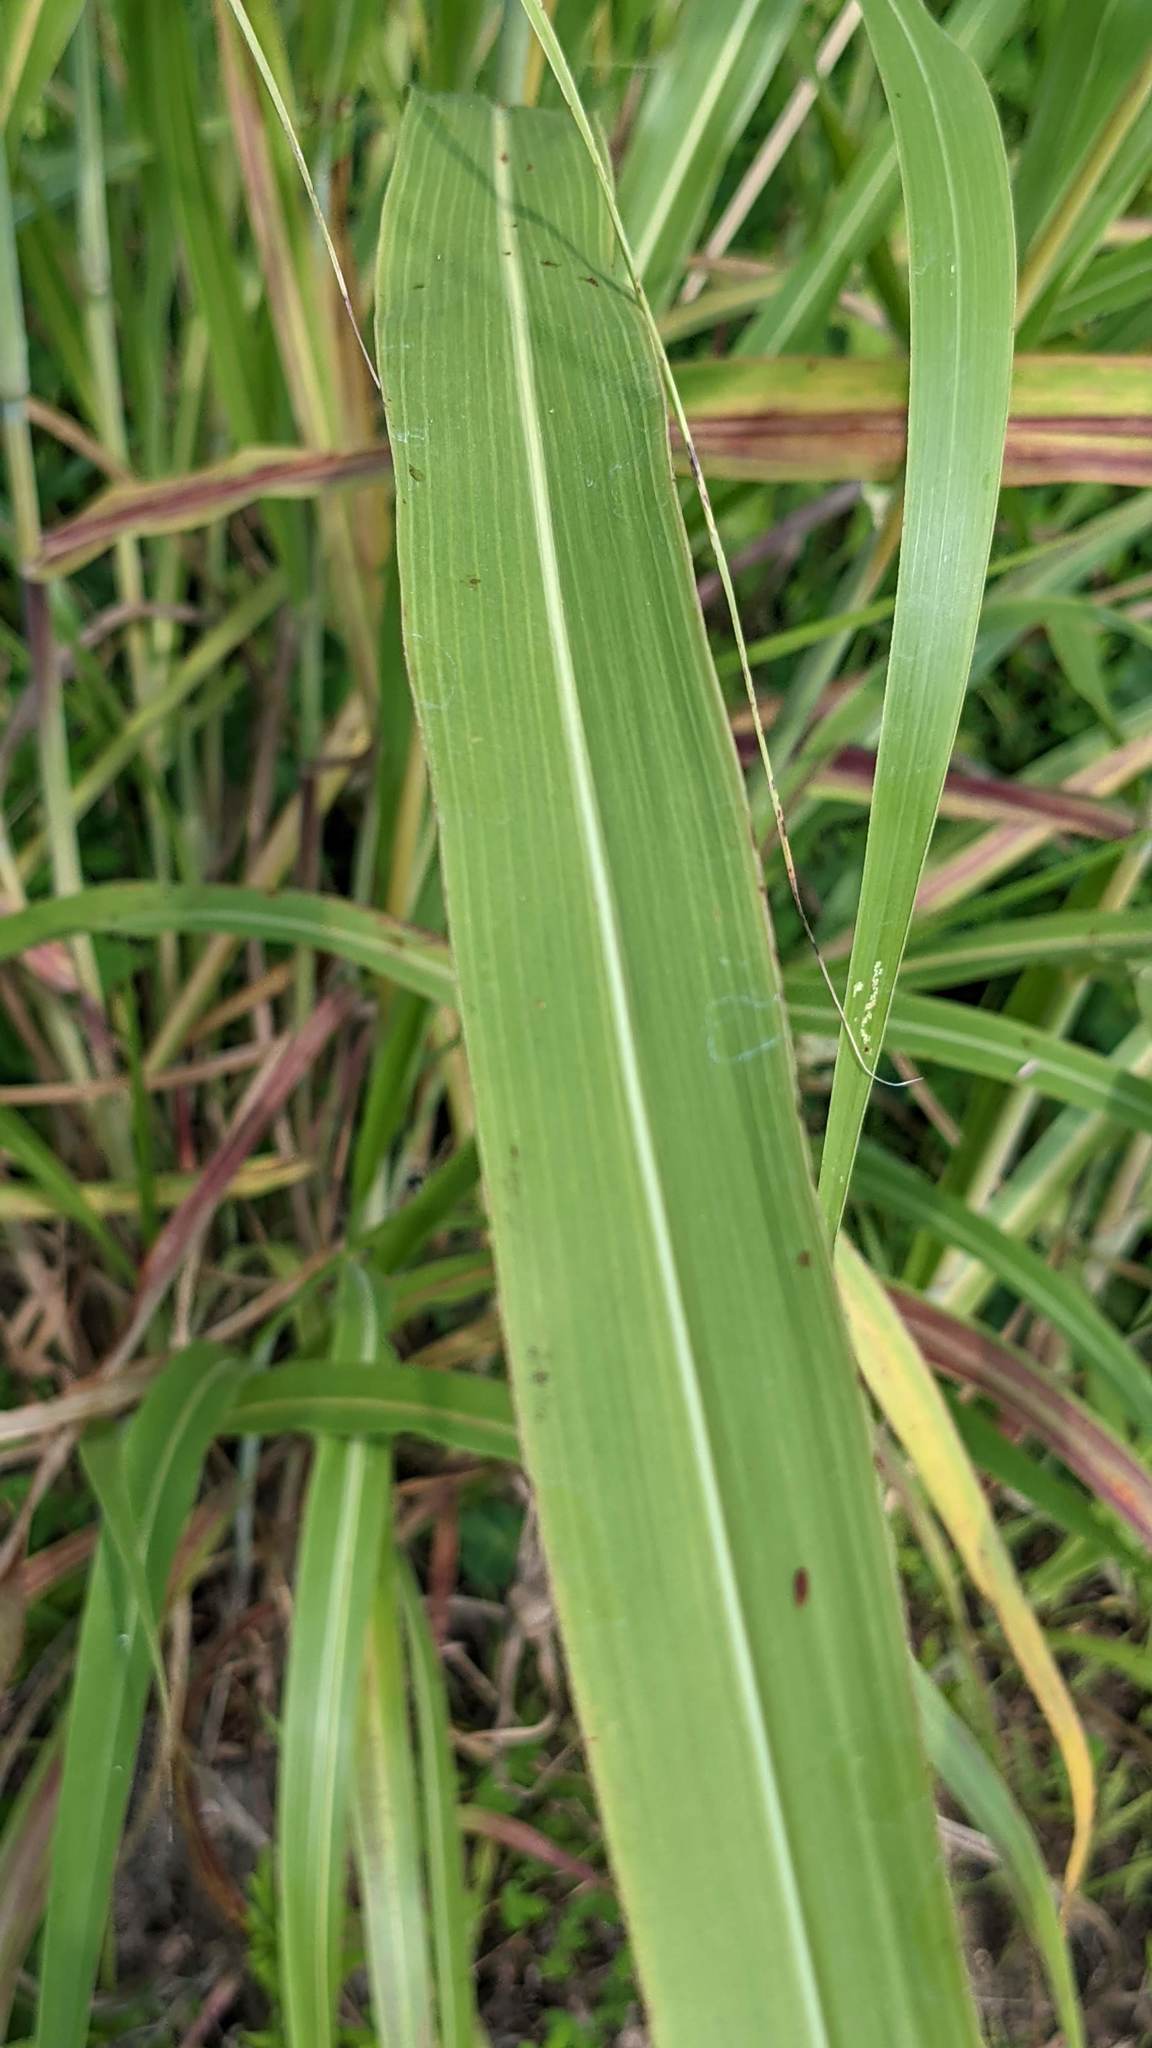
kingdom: Plantae
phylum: Tracheophyta
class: Liliopsida
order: Poales
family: Poaceae
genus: Sorghum
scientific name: Sorghum halepense
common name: Johnson-grass
